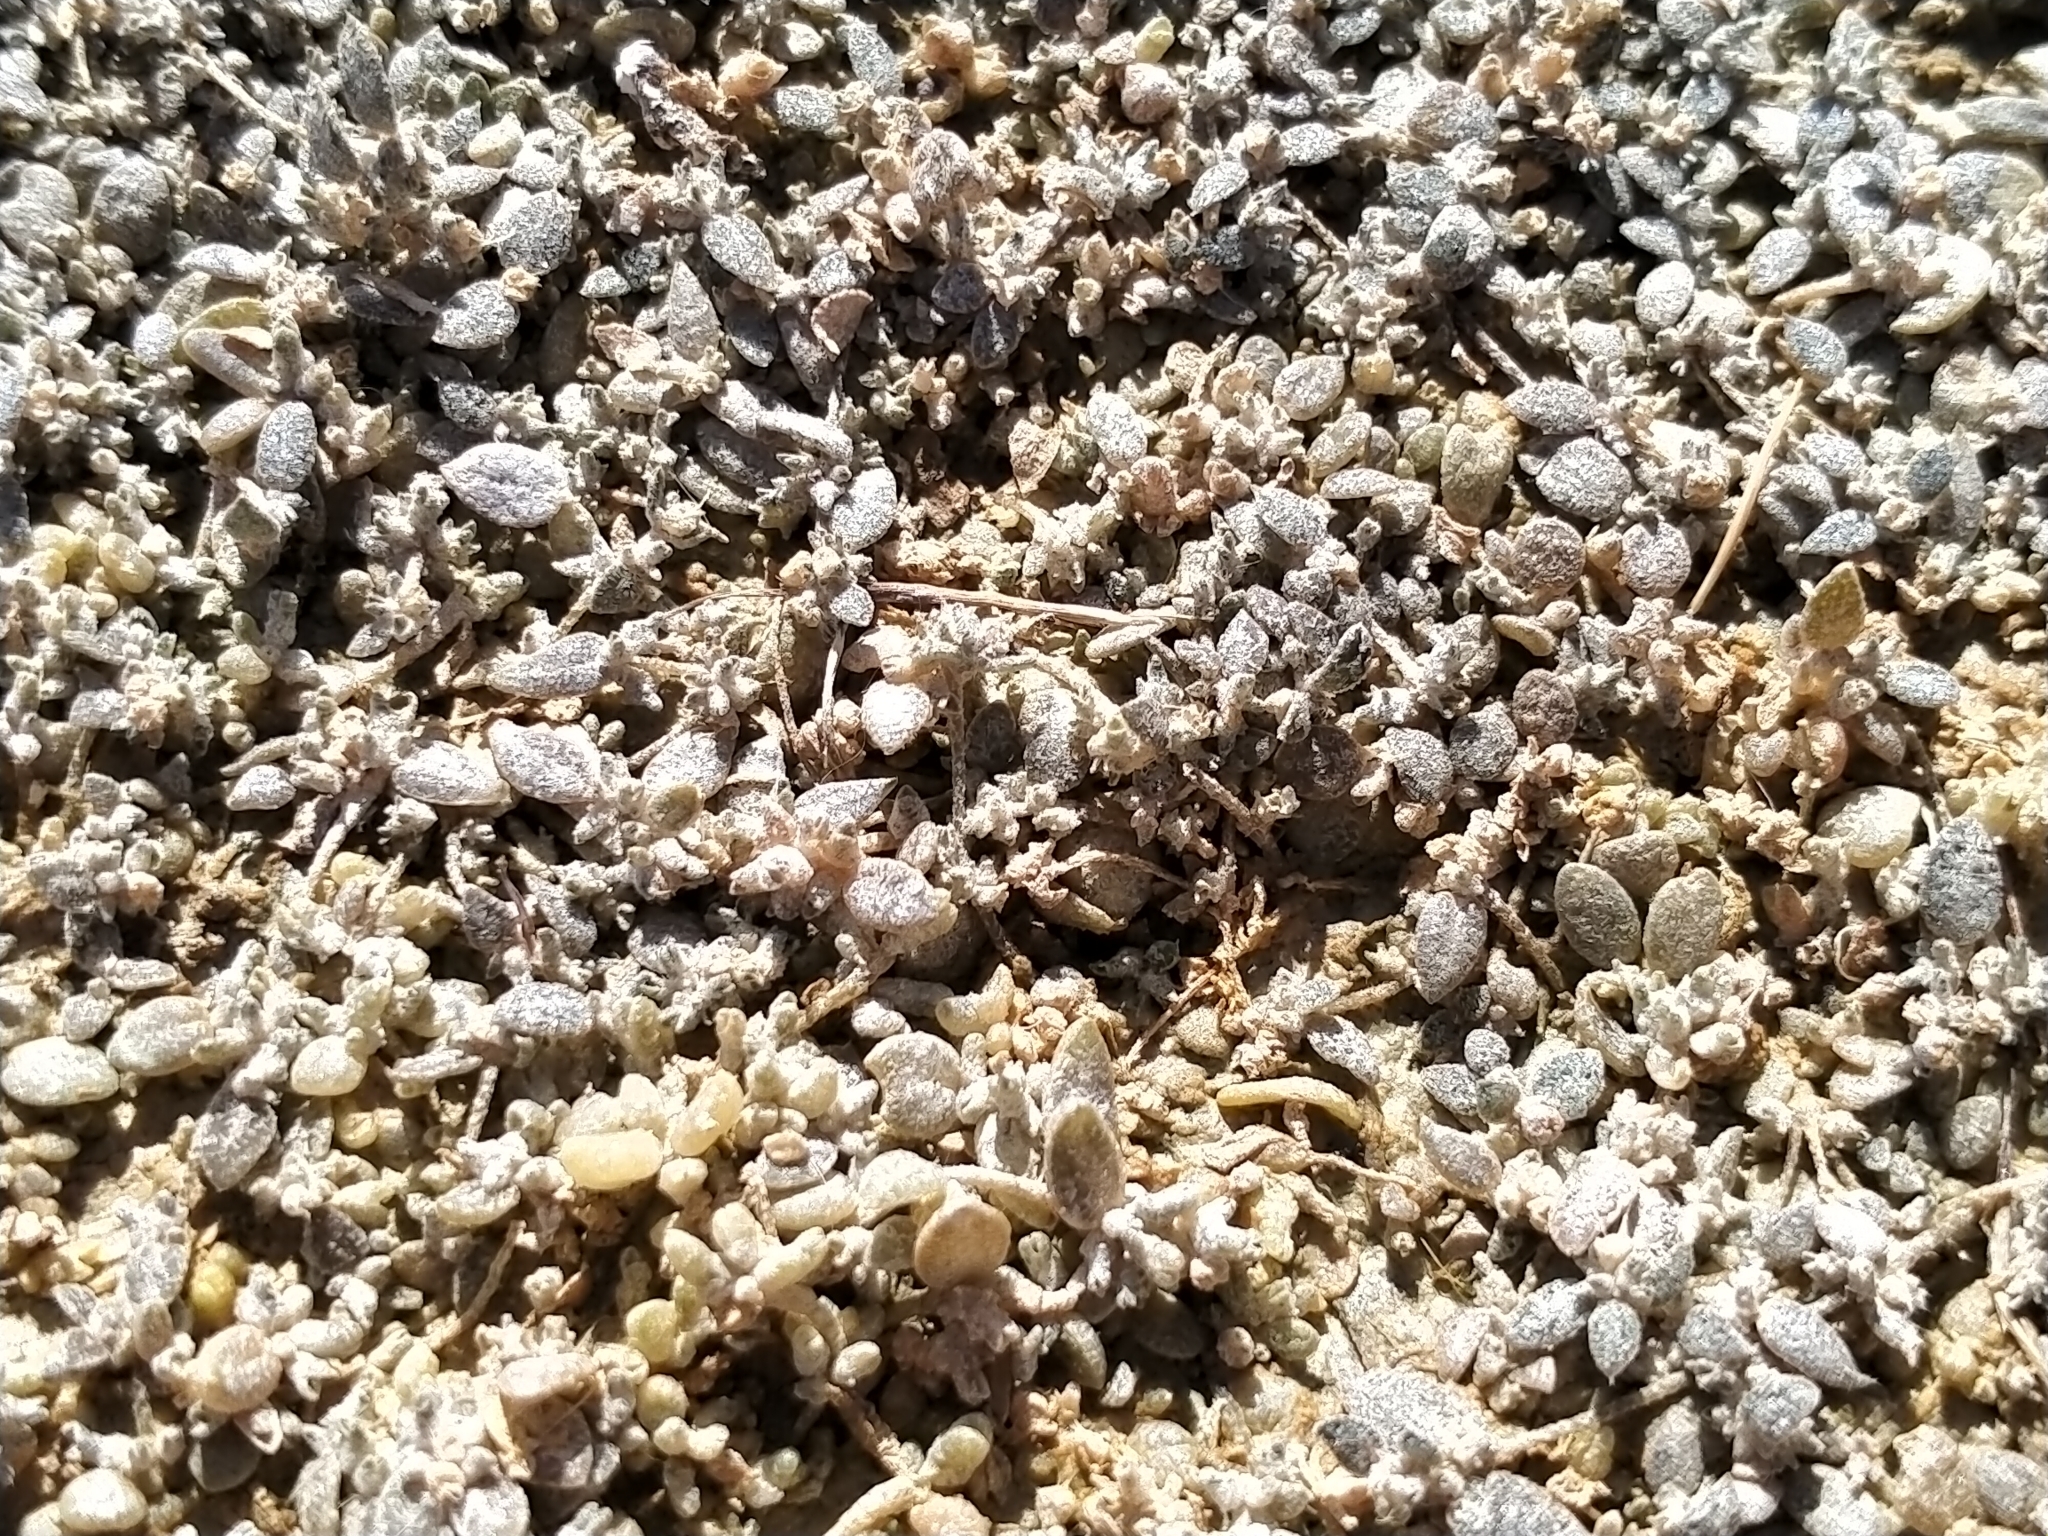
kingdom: Plantae
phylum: Tracheophyta
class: Magnoliopsida
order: Caryophyllales
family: Amaranthaceae
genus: Atriplex
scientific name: Atriplex buchananii
